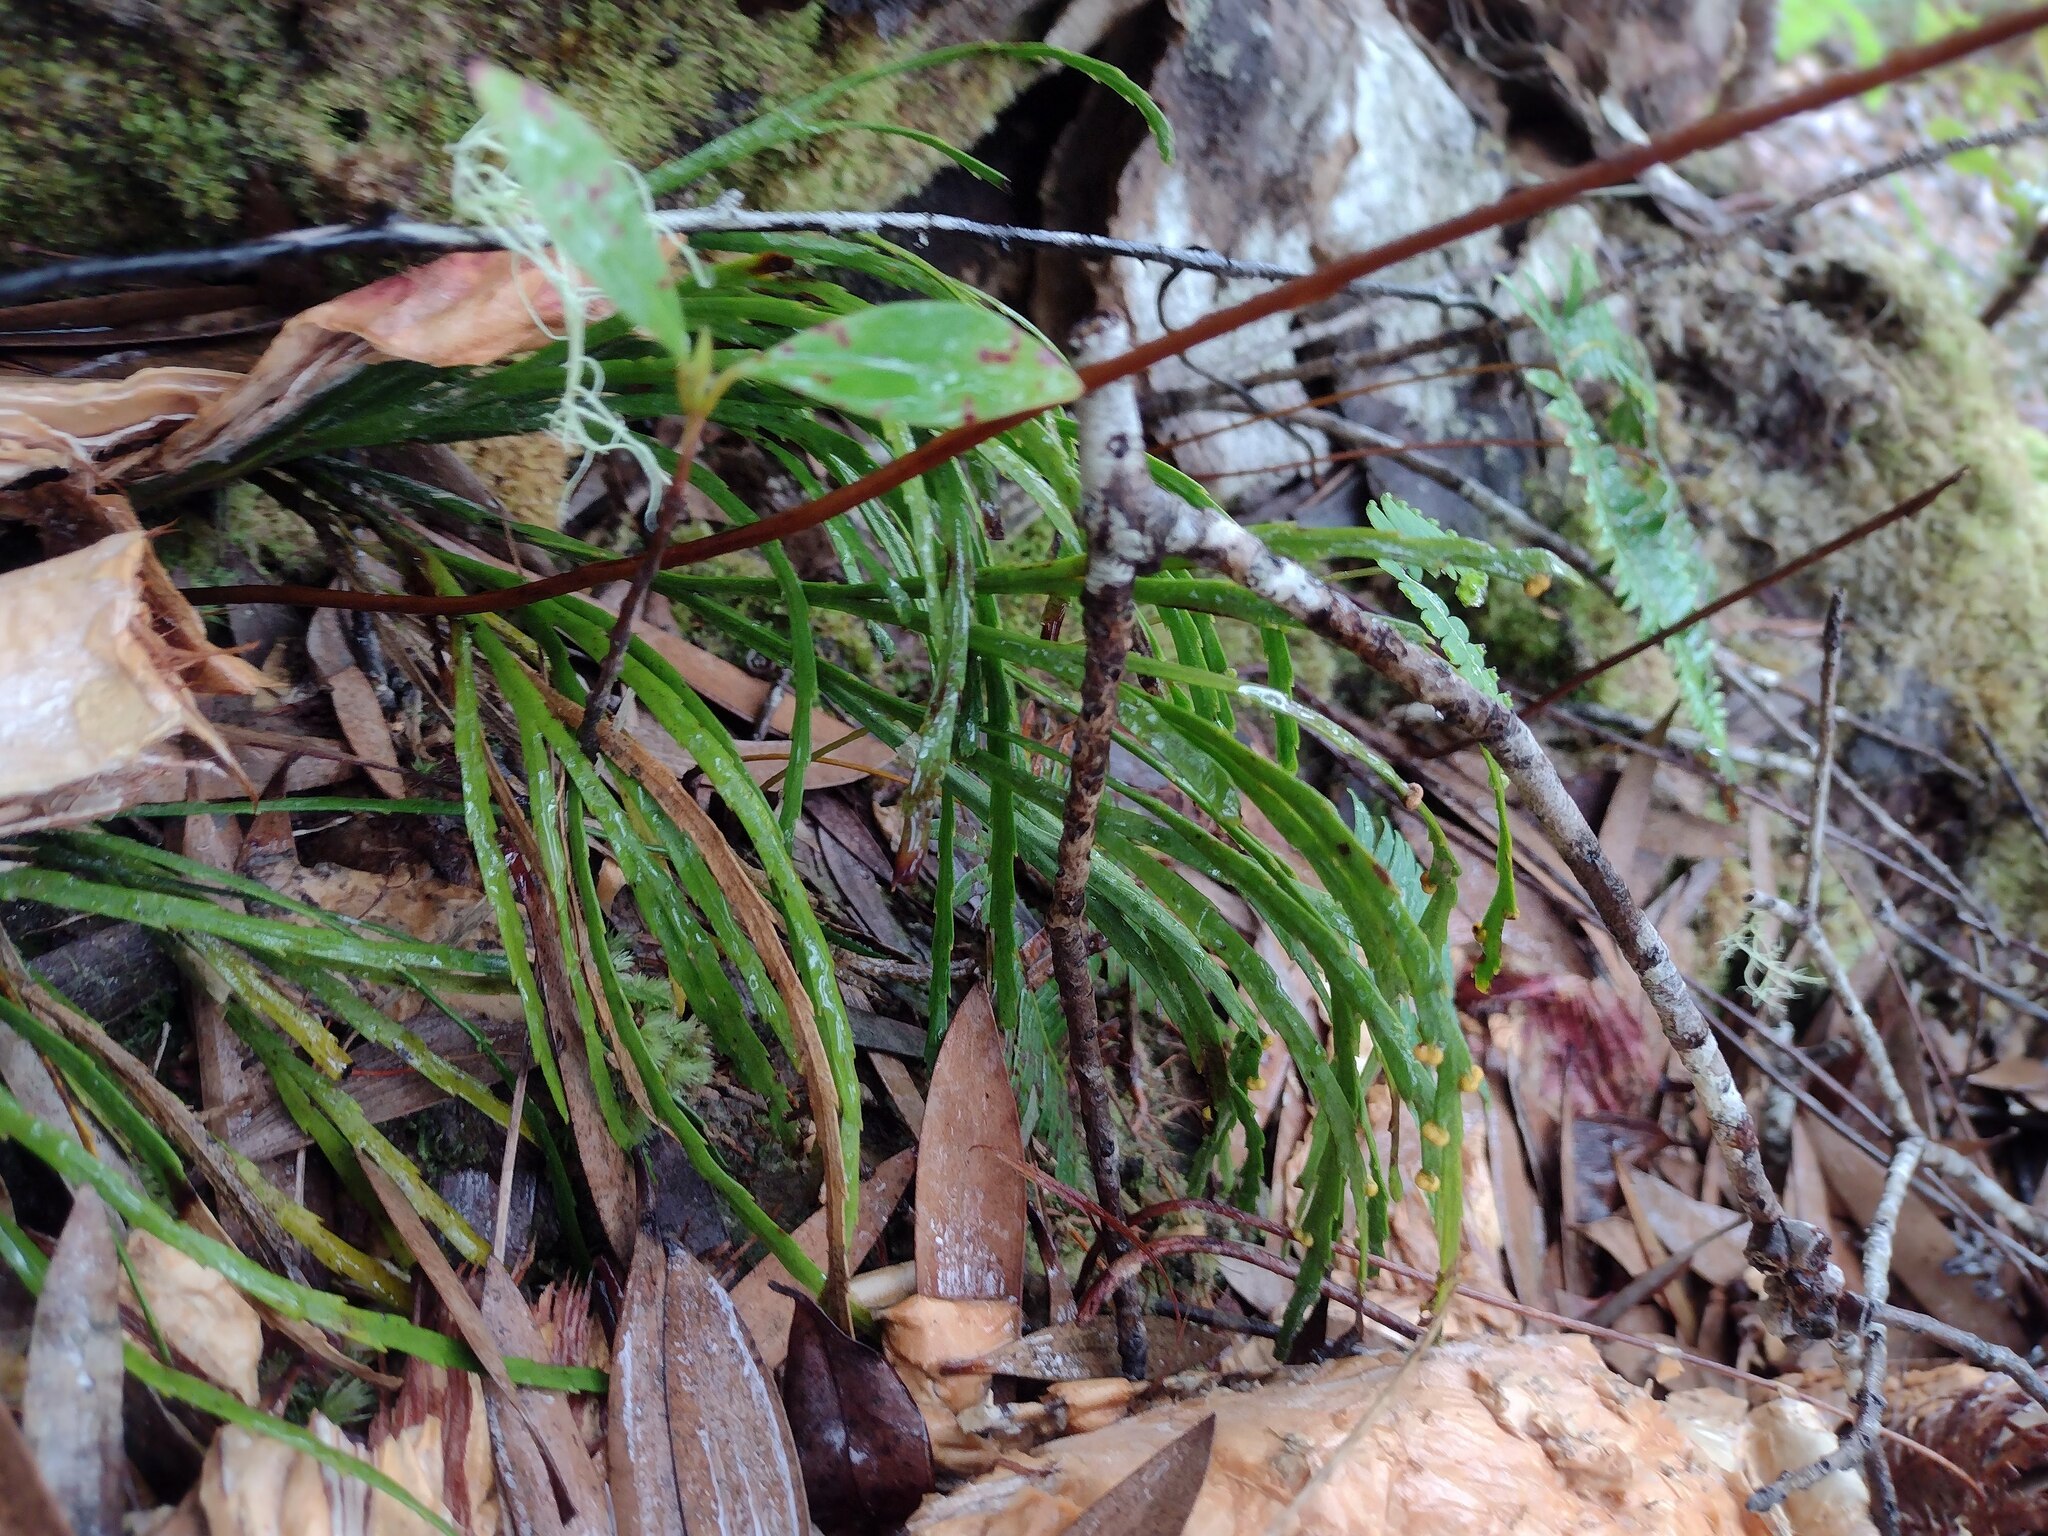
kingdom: Plantae
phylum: Tracheophyta
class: Polypodiopsida
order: Psilotales
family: Psilotaceae
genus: Psilotum
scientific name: Psilotum complanatum
